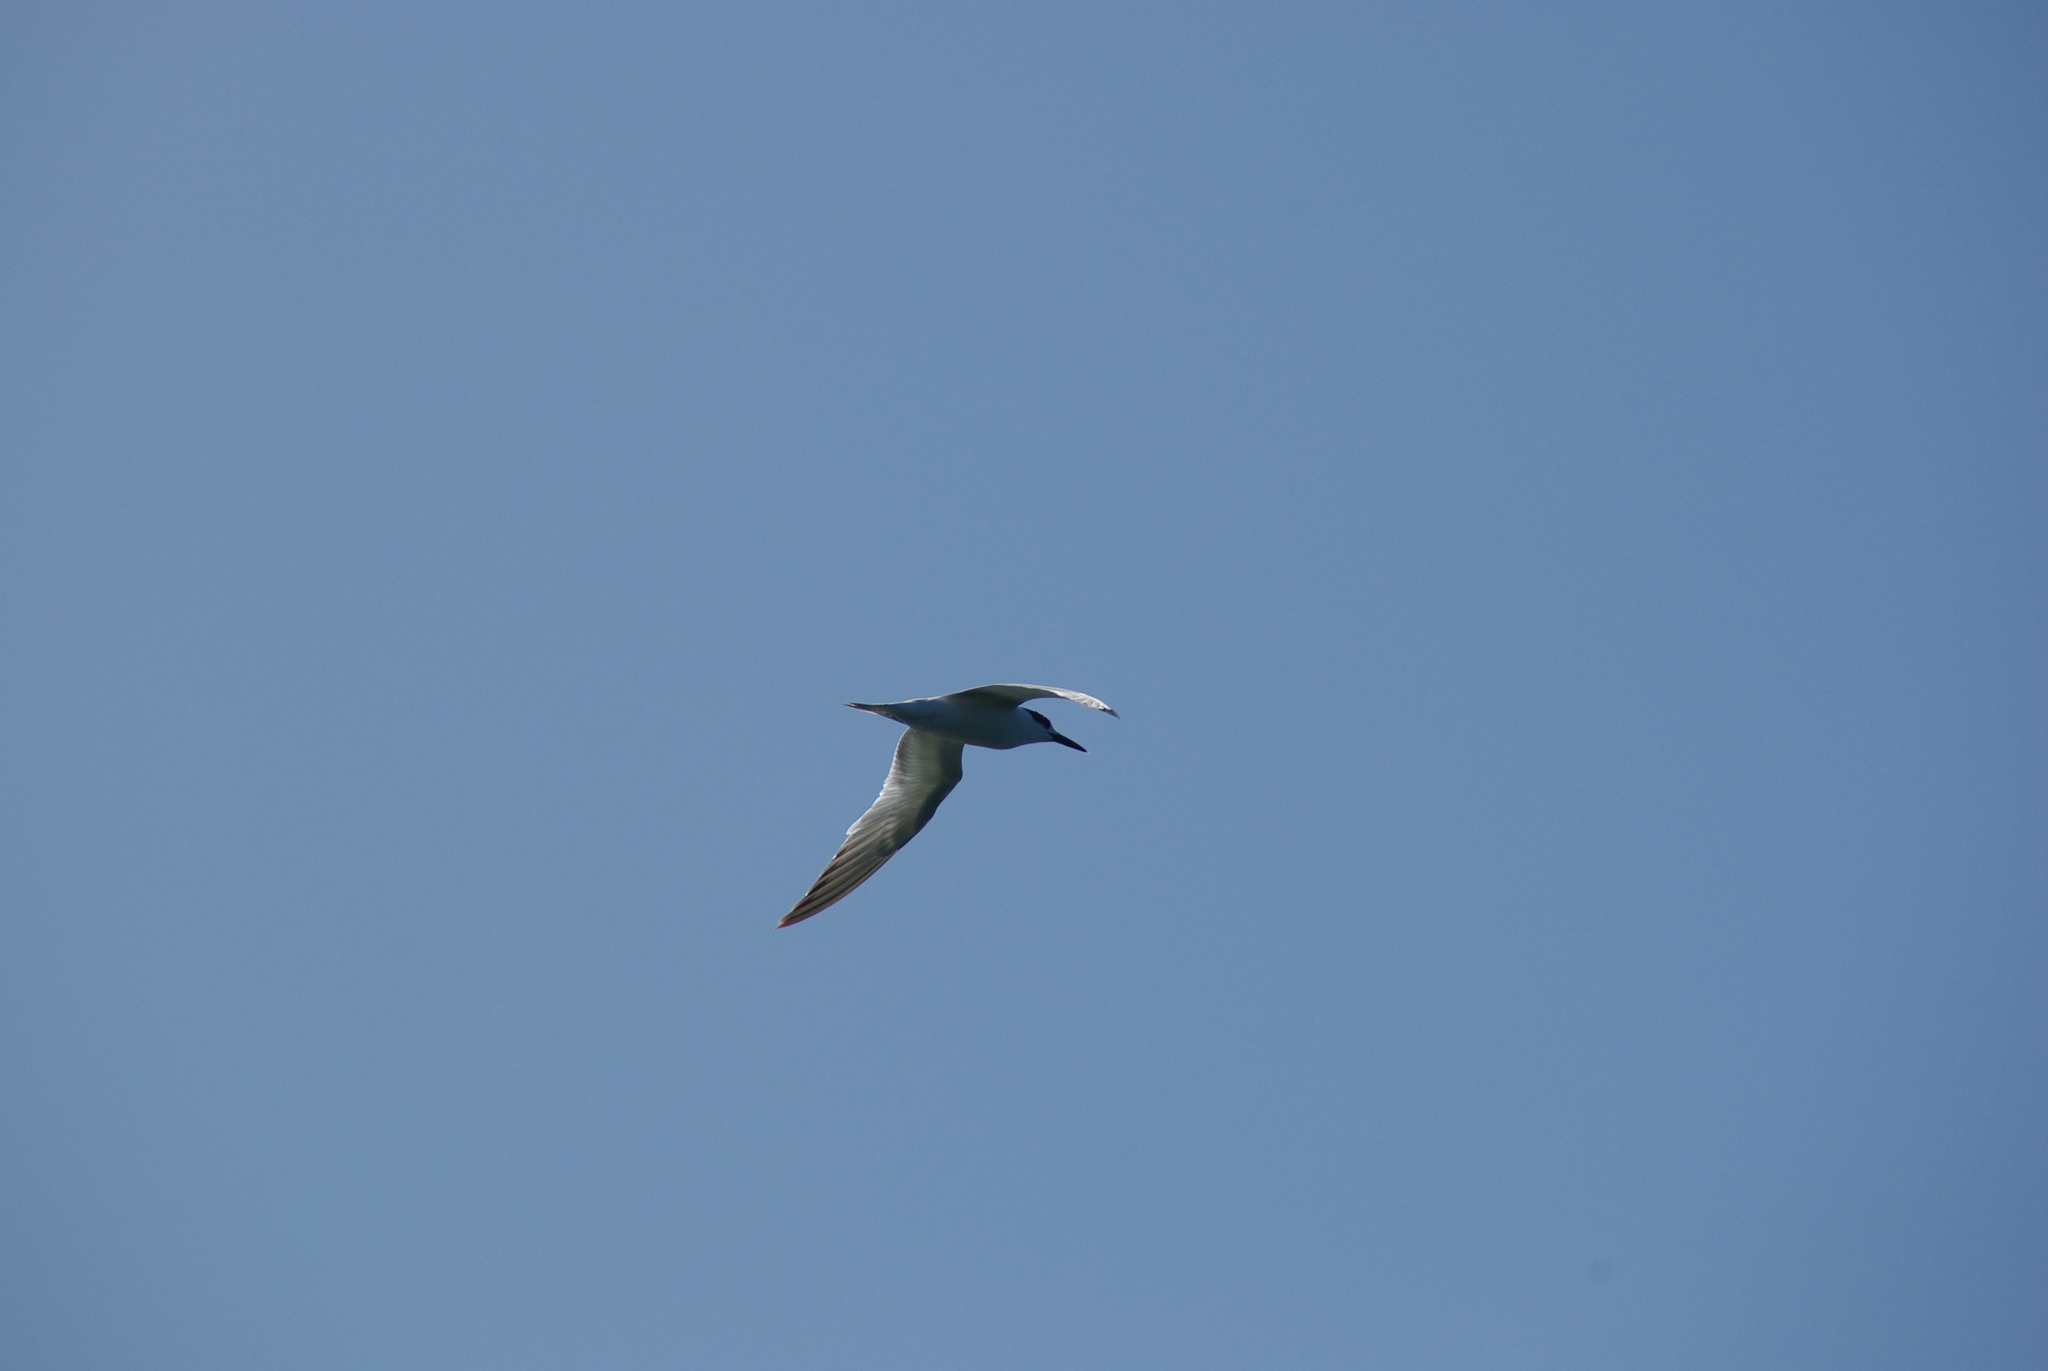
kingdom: Animalia
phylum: Chordata
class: Aves
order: Charadriiformes
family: Laridae
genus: Thalasseus
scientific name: Thalasseus sandvicensis
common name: Sandwich tern
